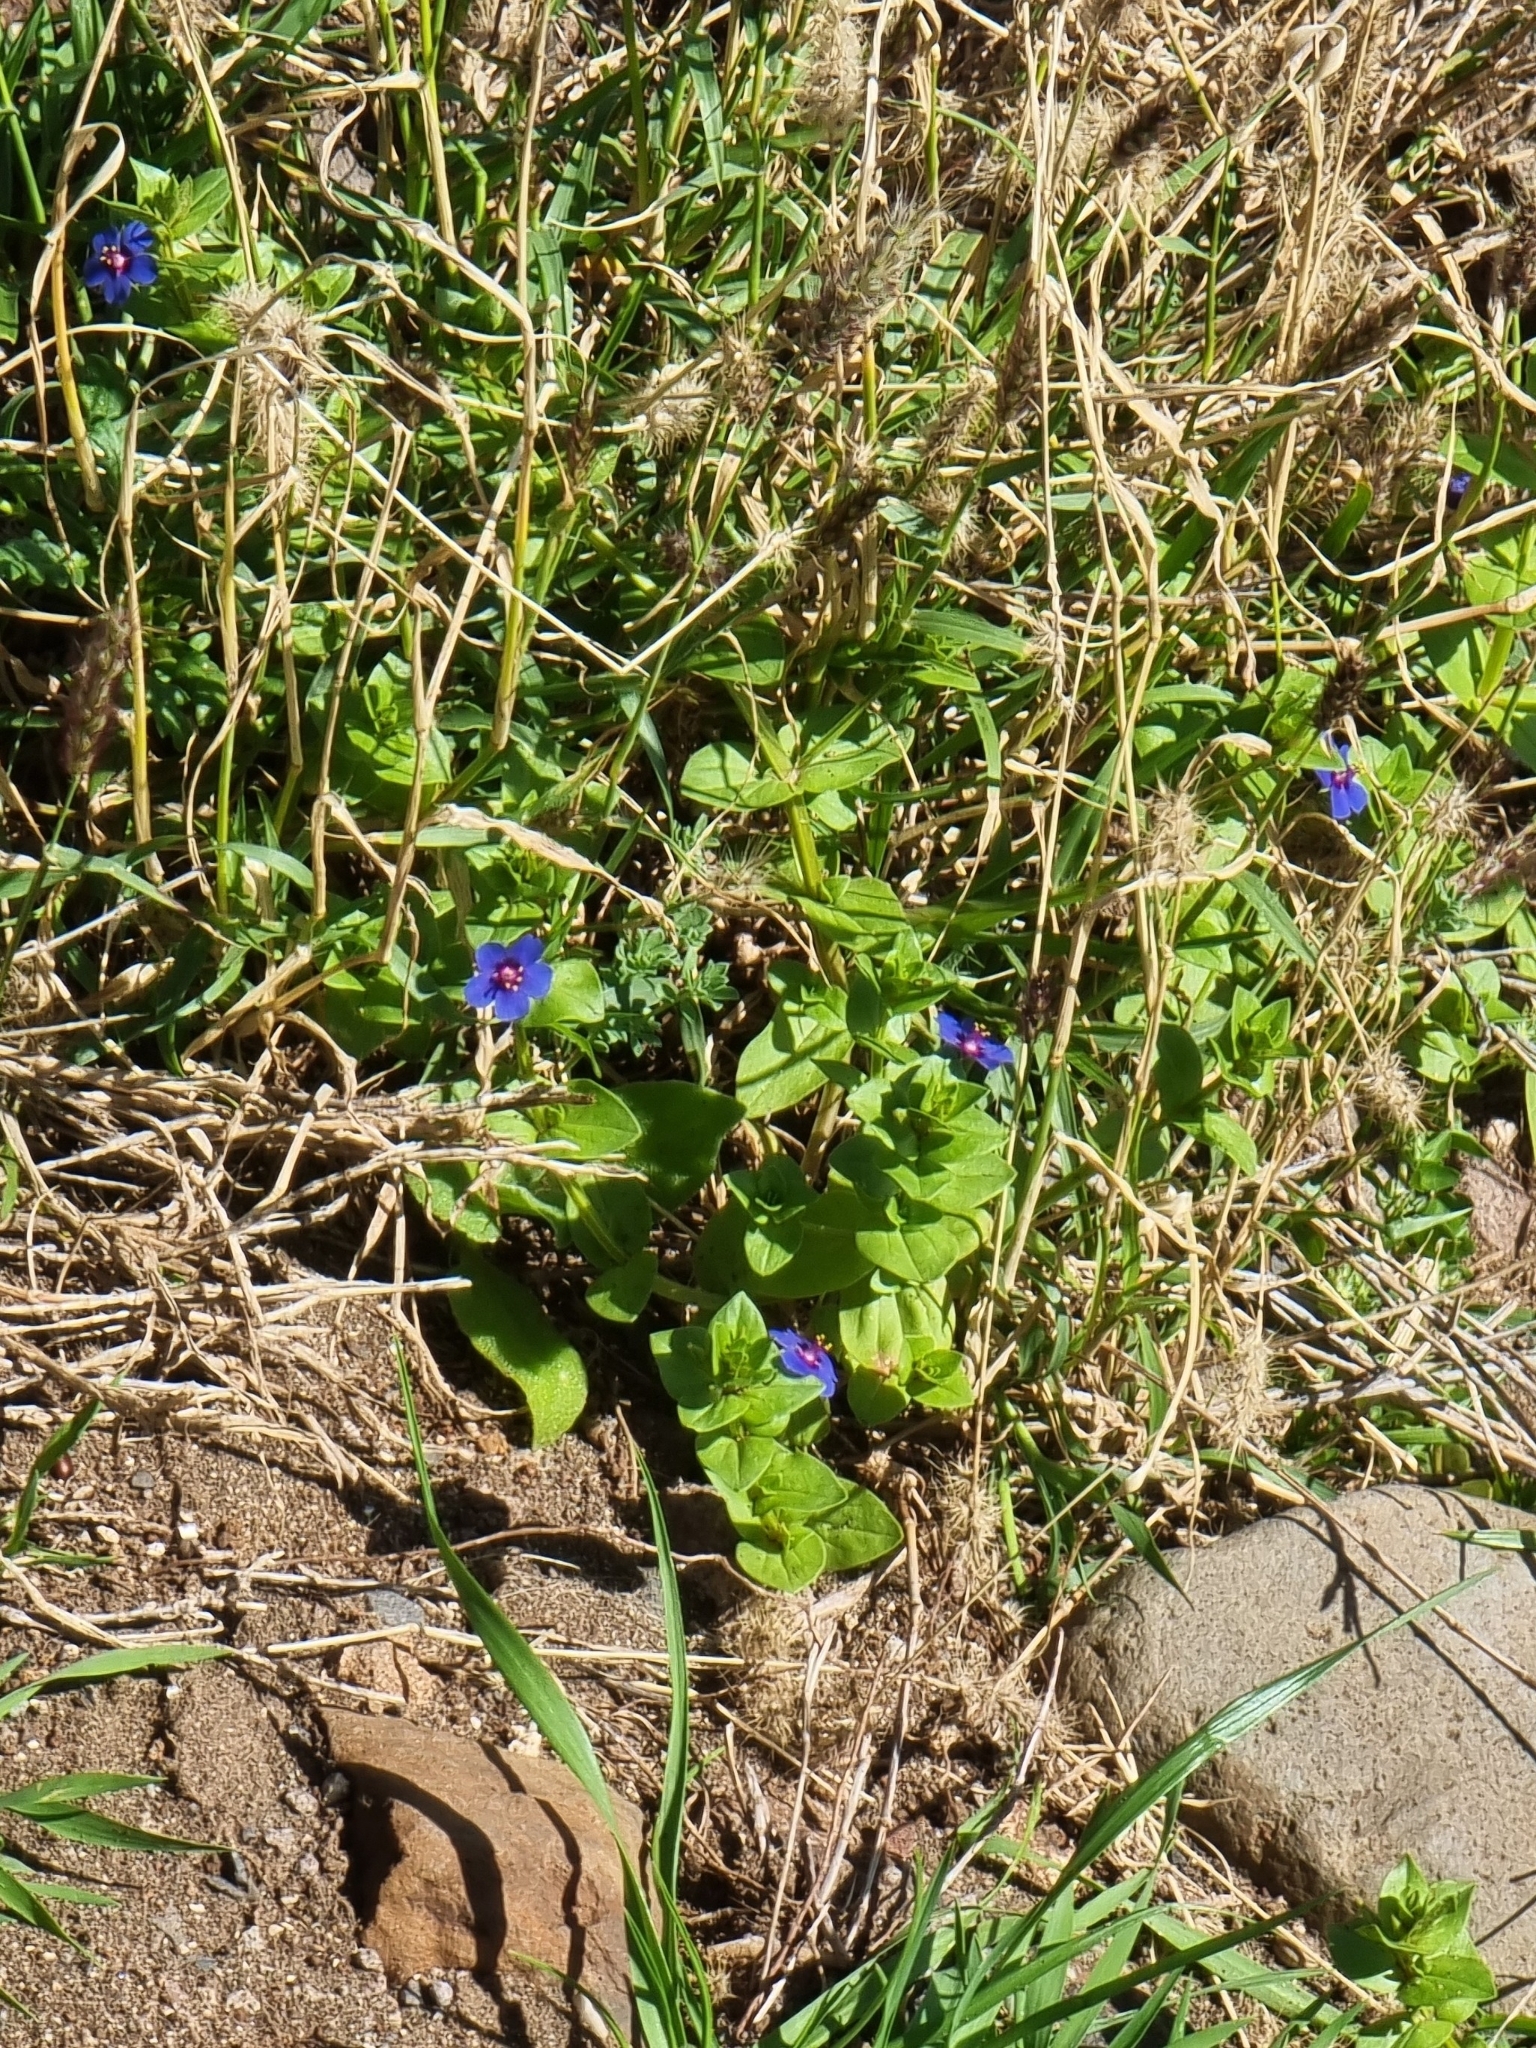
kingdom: Plantae
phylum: Tracheophyta
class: Magnoliopsida
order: Ericales
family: Primulaceae
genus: Lysimachia
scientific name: Lysimachia loeflingii
